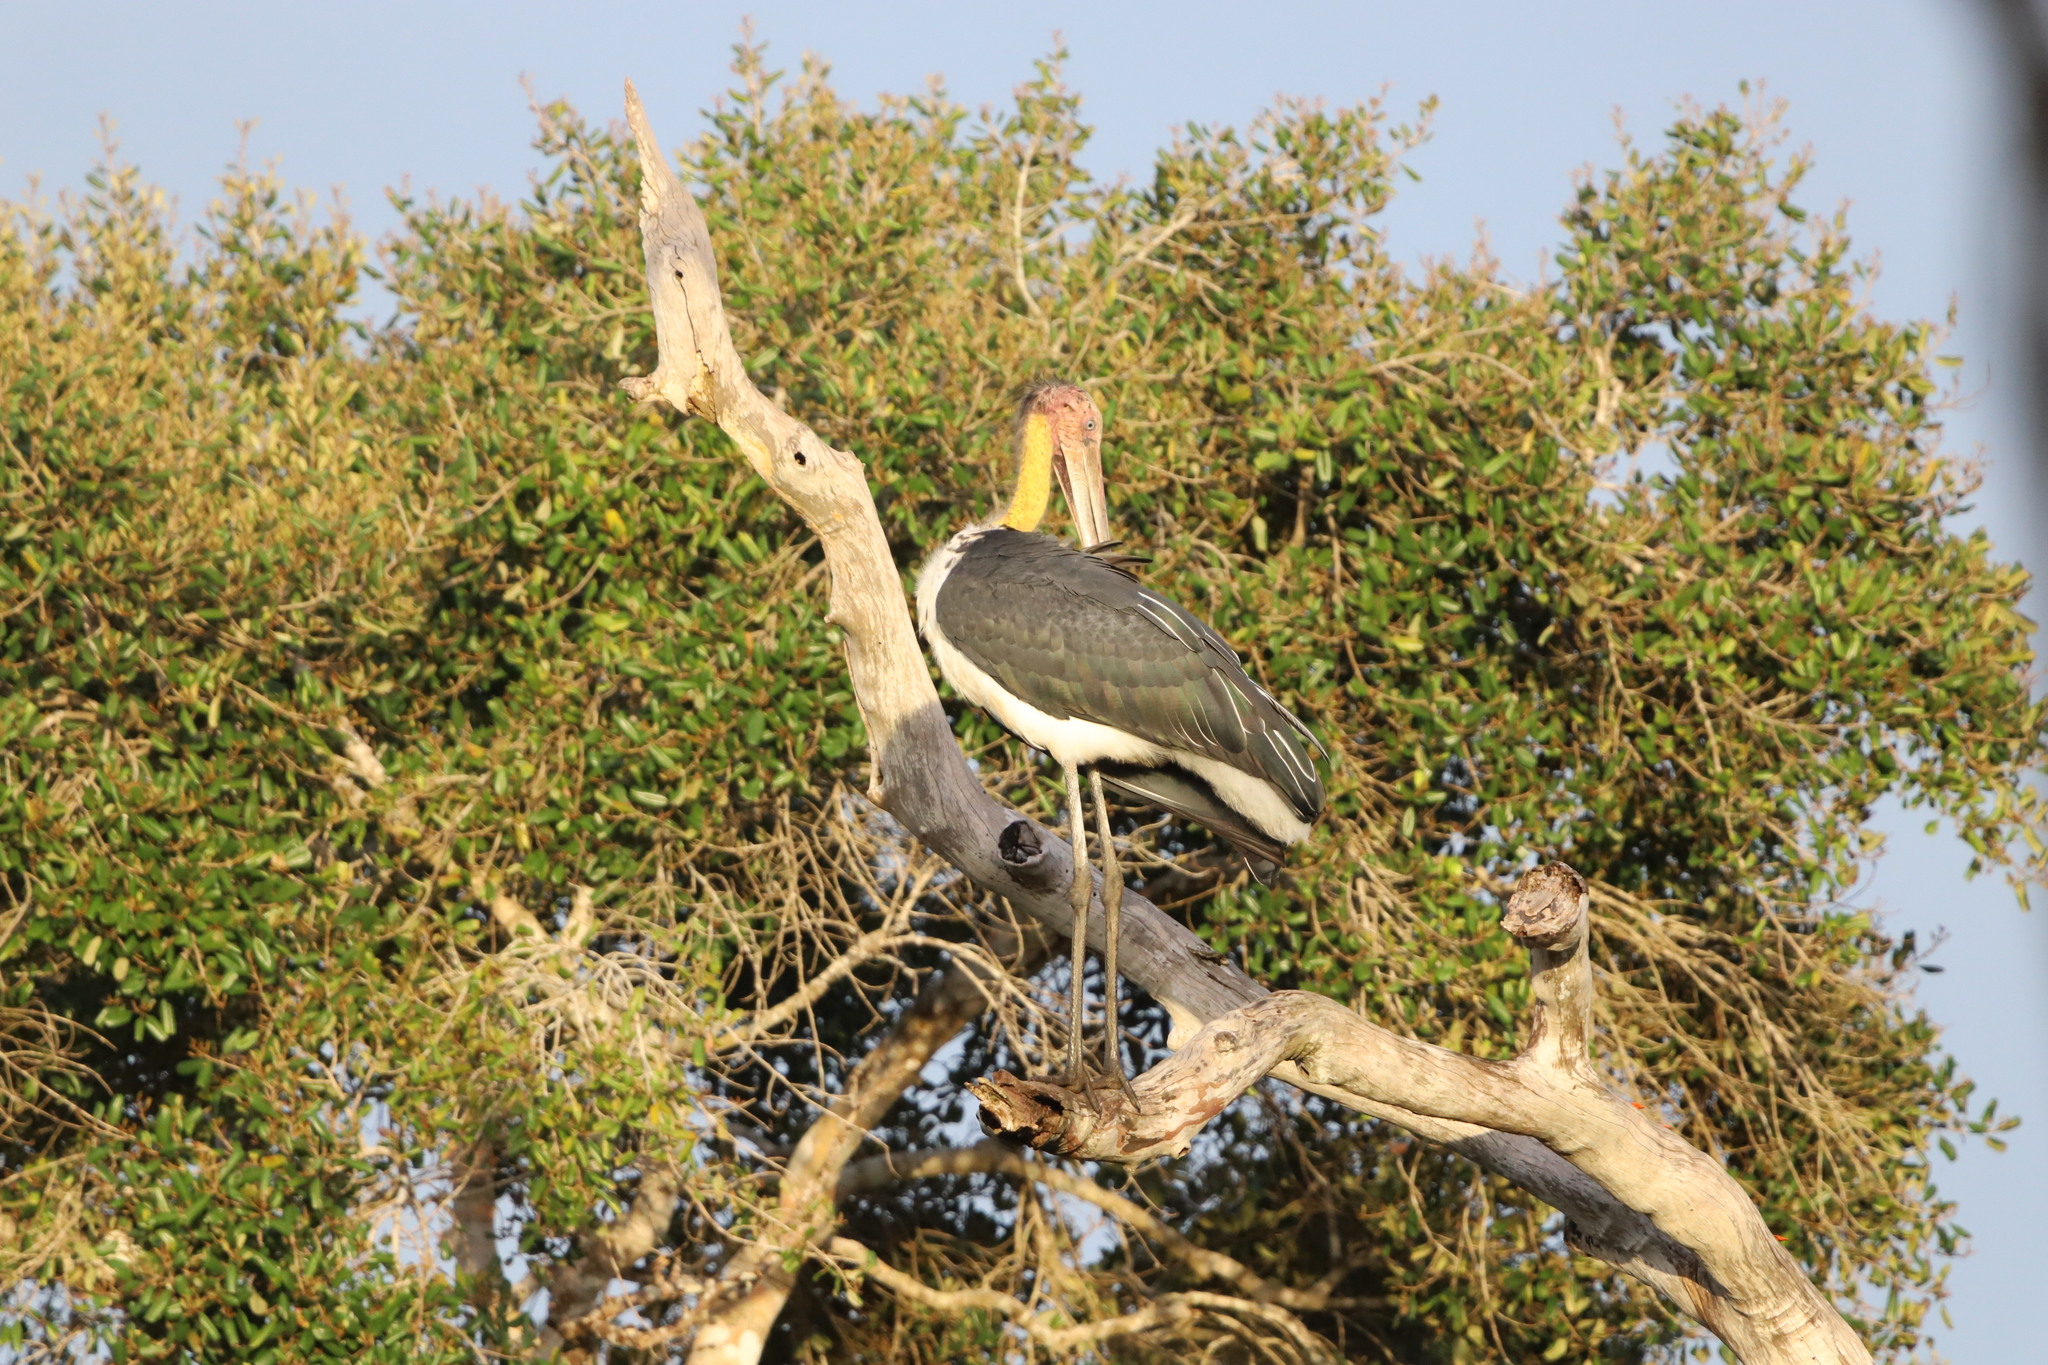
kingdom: Animalia
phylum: Chordata
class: Aves
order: Ciconiiformes
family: Ciconiidae
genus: Leptoptilos
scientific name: Leptoptilos javanicus
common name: Lesser adjutant
